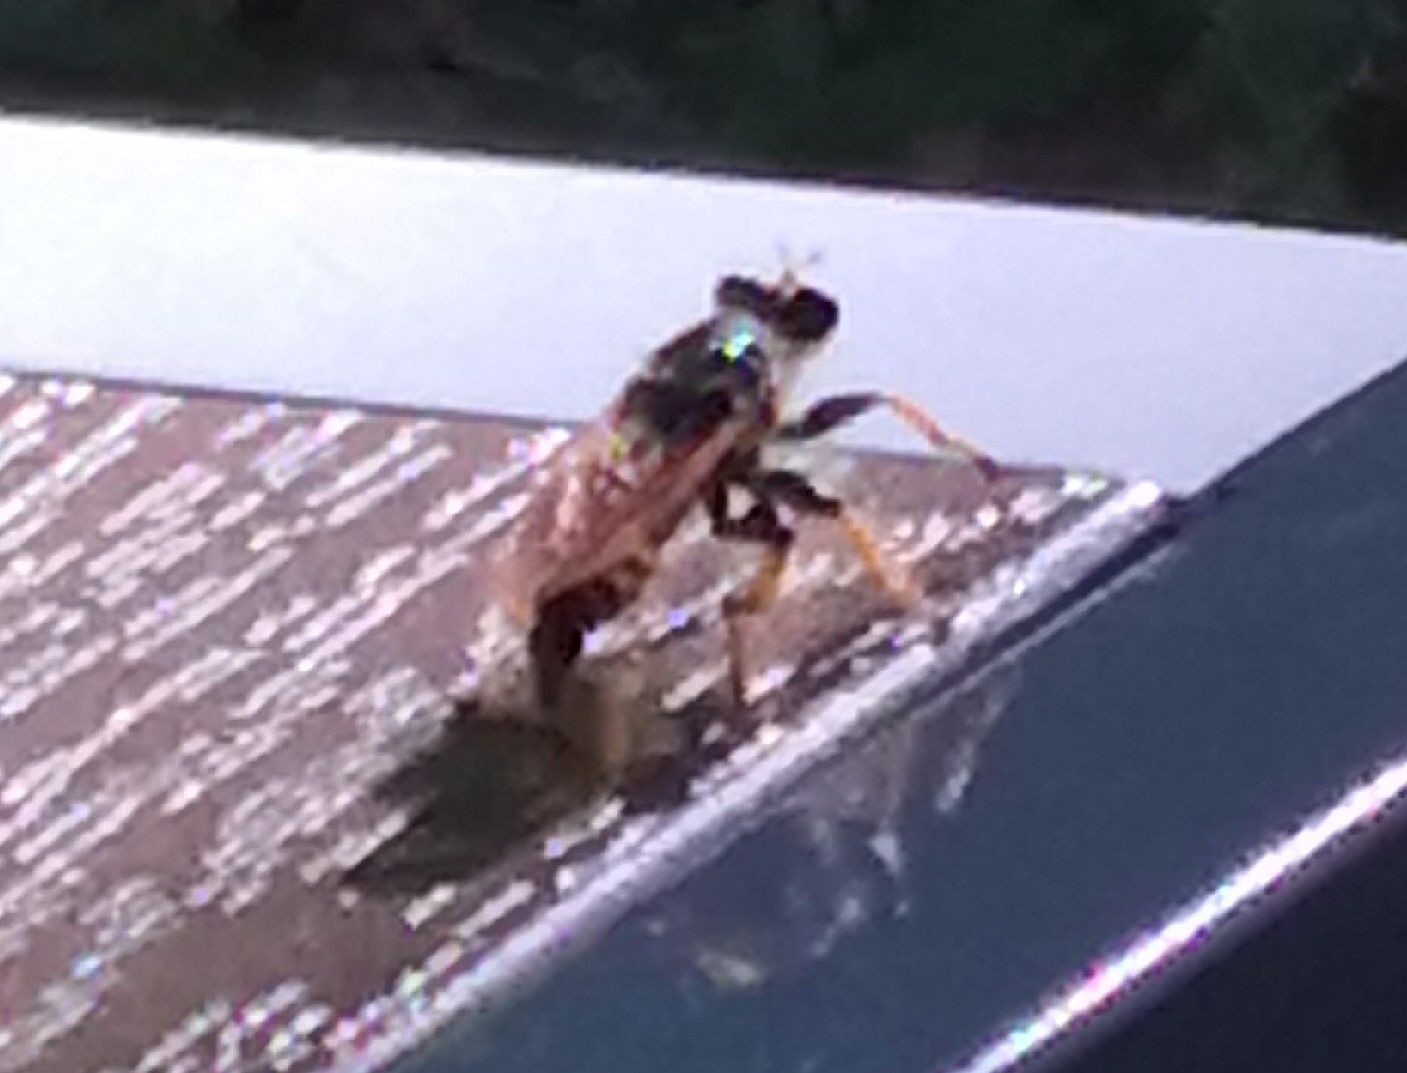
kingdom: Animalia
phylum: Arthropoda
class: Insecta
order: Diptera
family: Asilidae
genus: Pogonosoma
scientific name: Pogonosoma maroccanum
